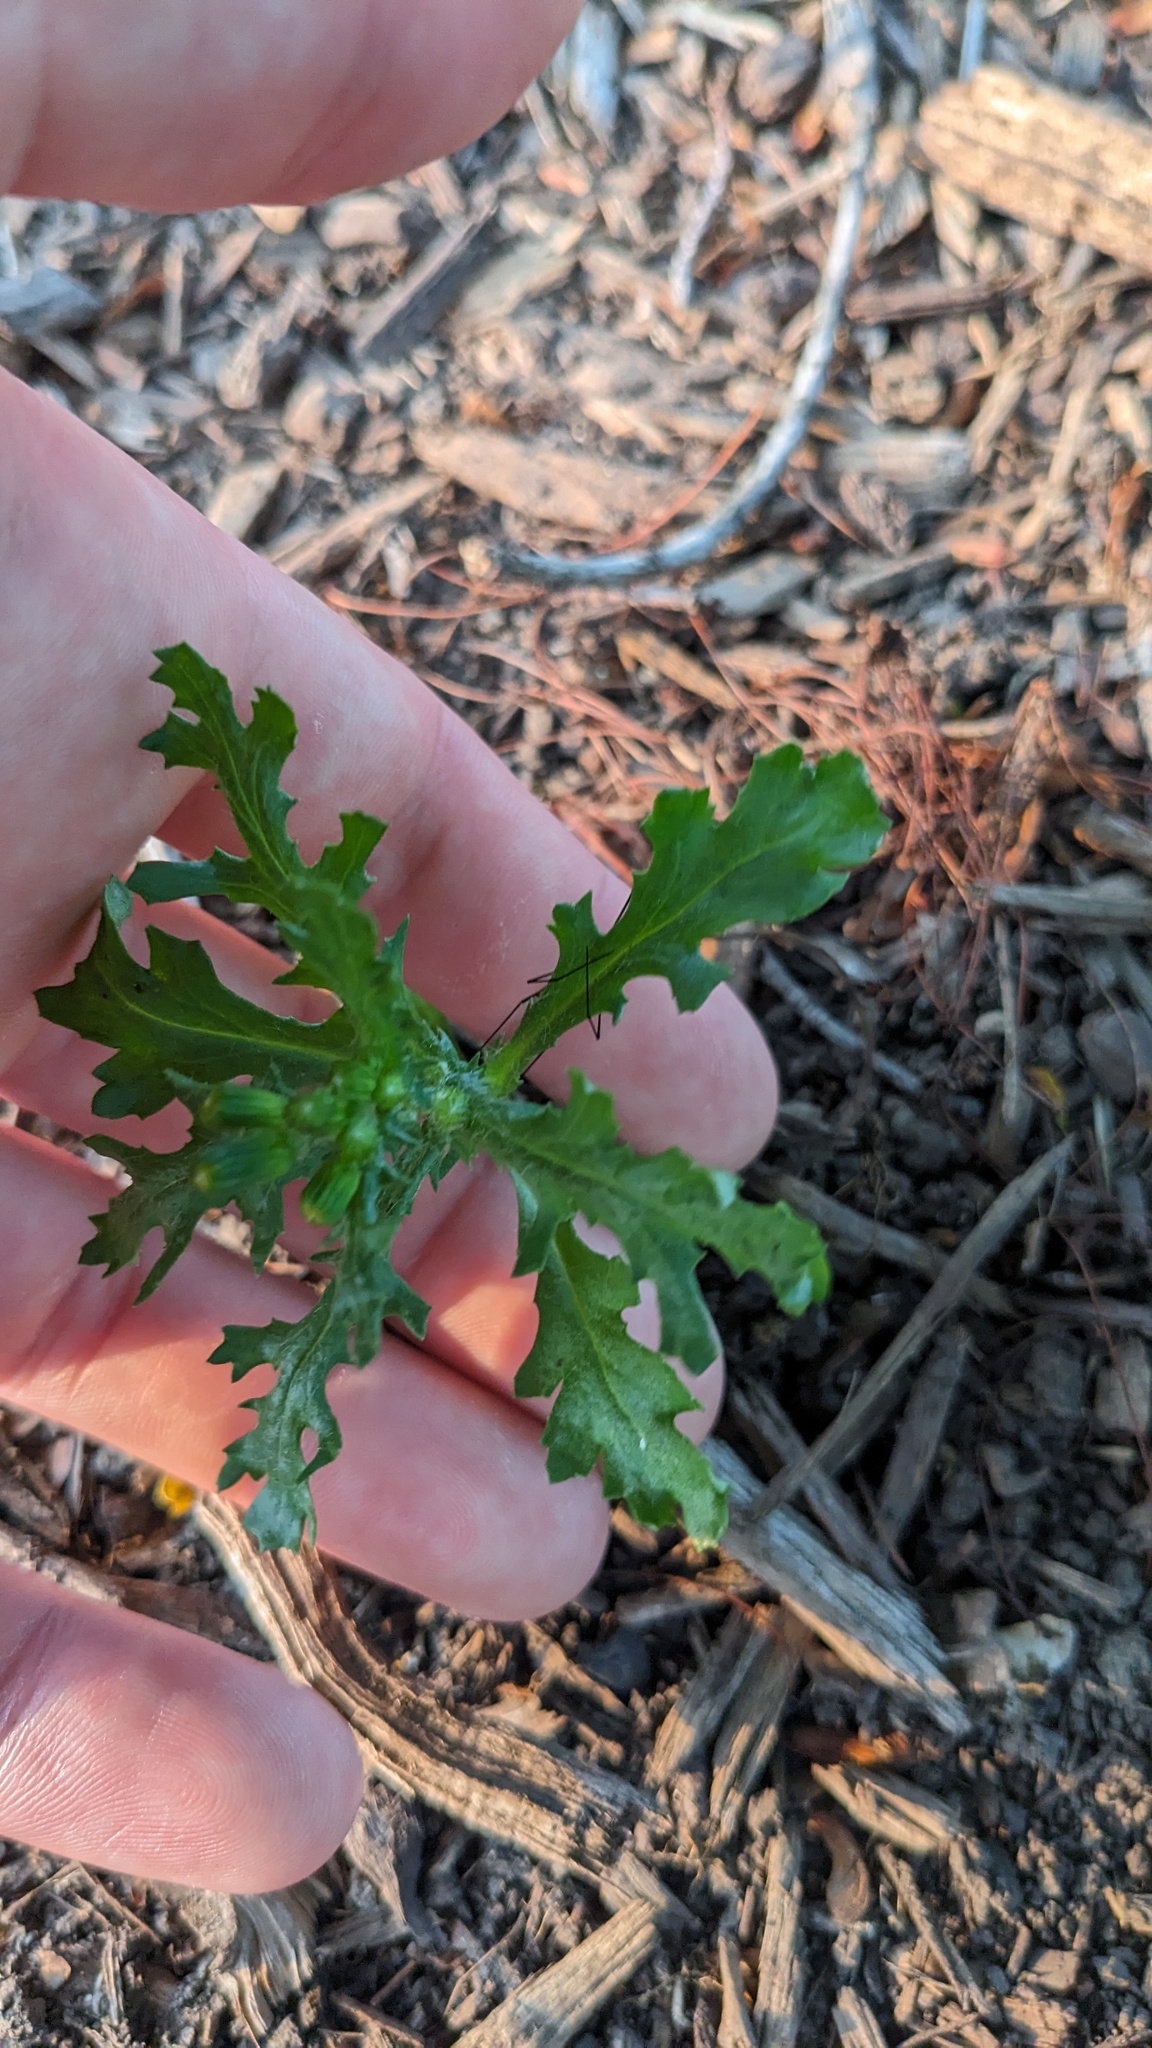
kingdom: Plantae
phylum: Tracheophyta
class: Magnoliopsida
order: Asterales
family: Asteraceae
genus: Senecio
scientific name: Senecio vulgaris
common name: Old-man-in-the-spring
